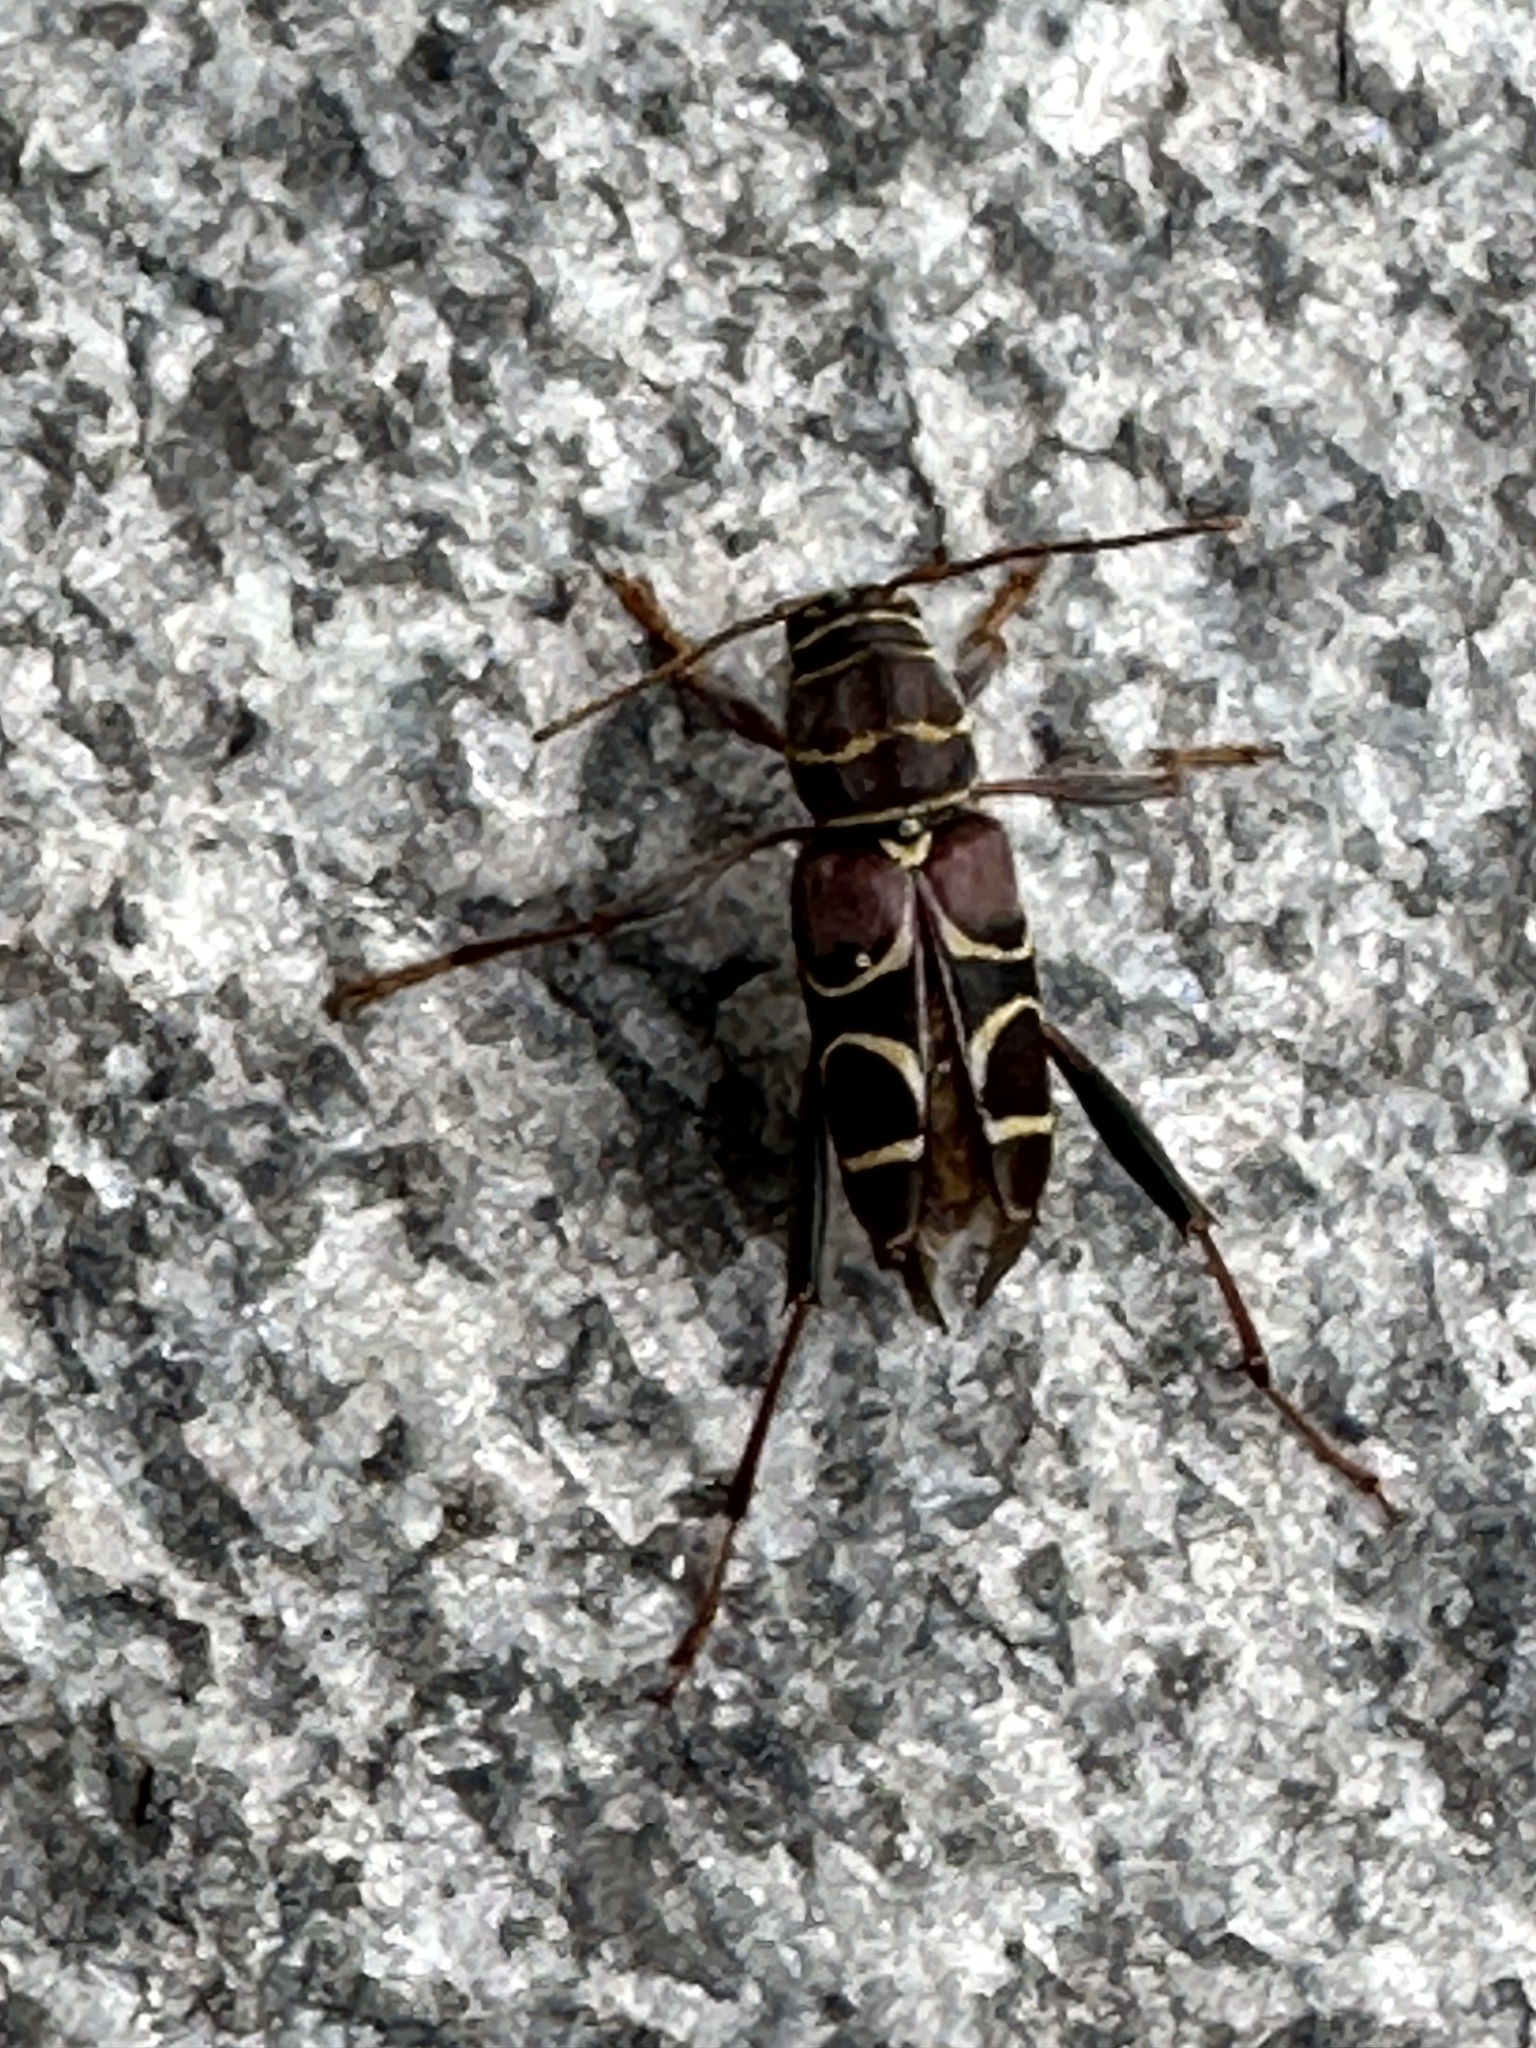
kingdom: Animalia
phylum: Arthropoda
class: Insecta
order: Coleoptera
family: Cerambycidae
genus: Neoclytus
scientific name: Neoclytus scutellaris
